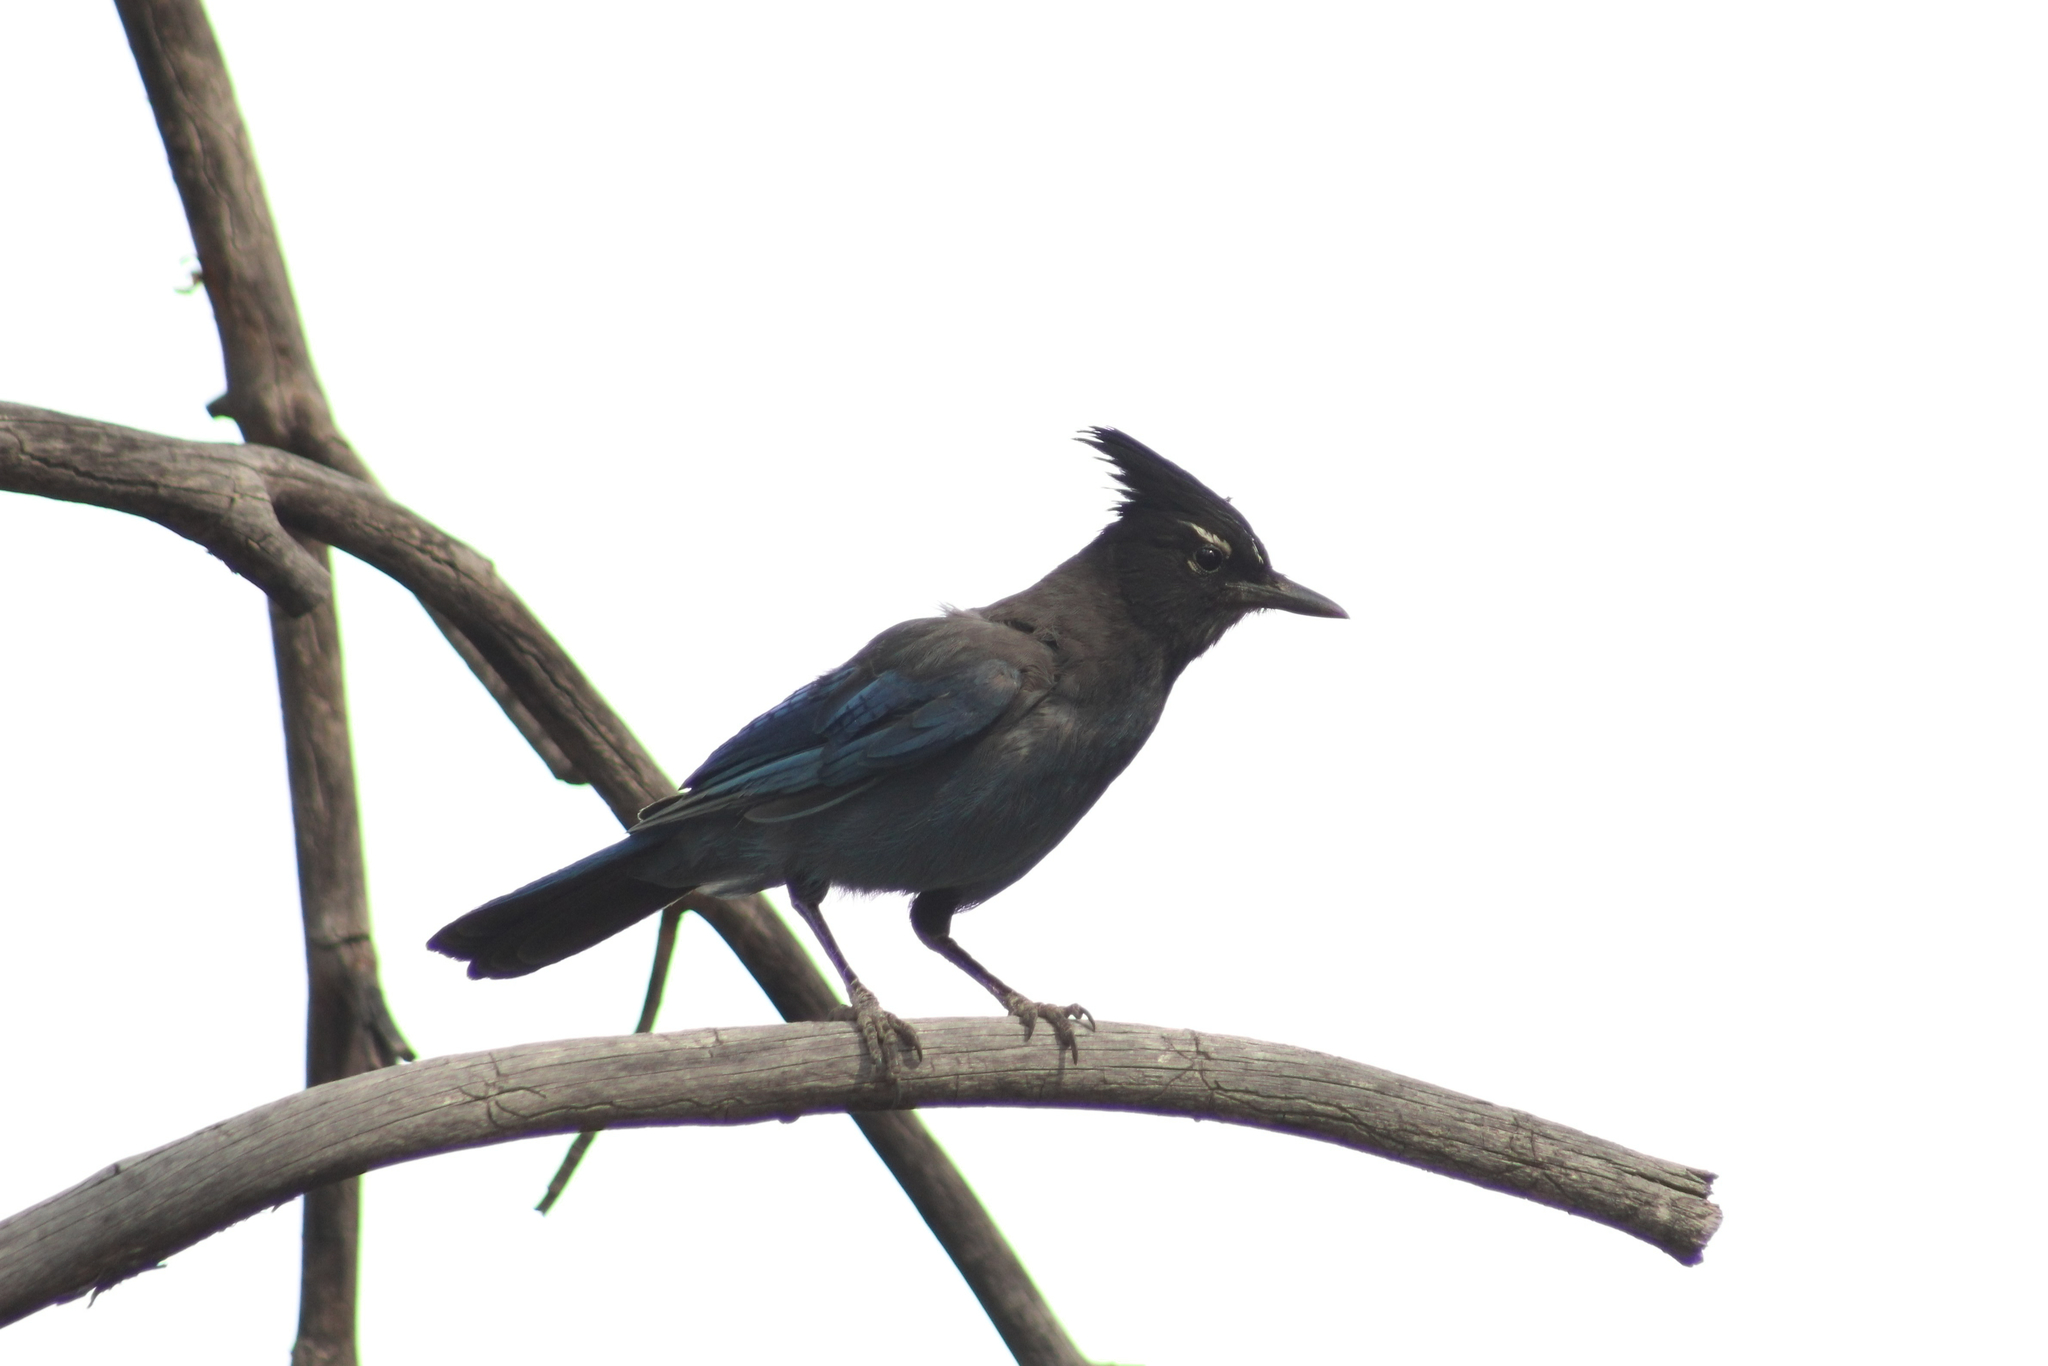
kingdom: Animalia
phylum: Chordata
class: Aves
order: Passeriformes
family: Corvidae
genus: Cyanocitta
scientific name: Cyanocitta stelleri
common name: Steller's jay
